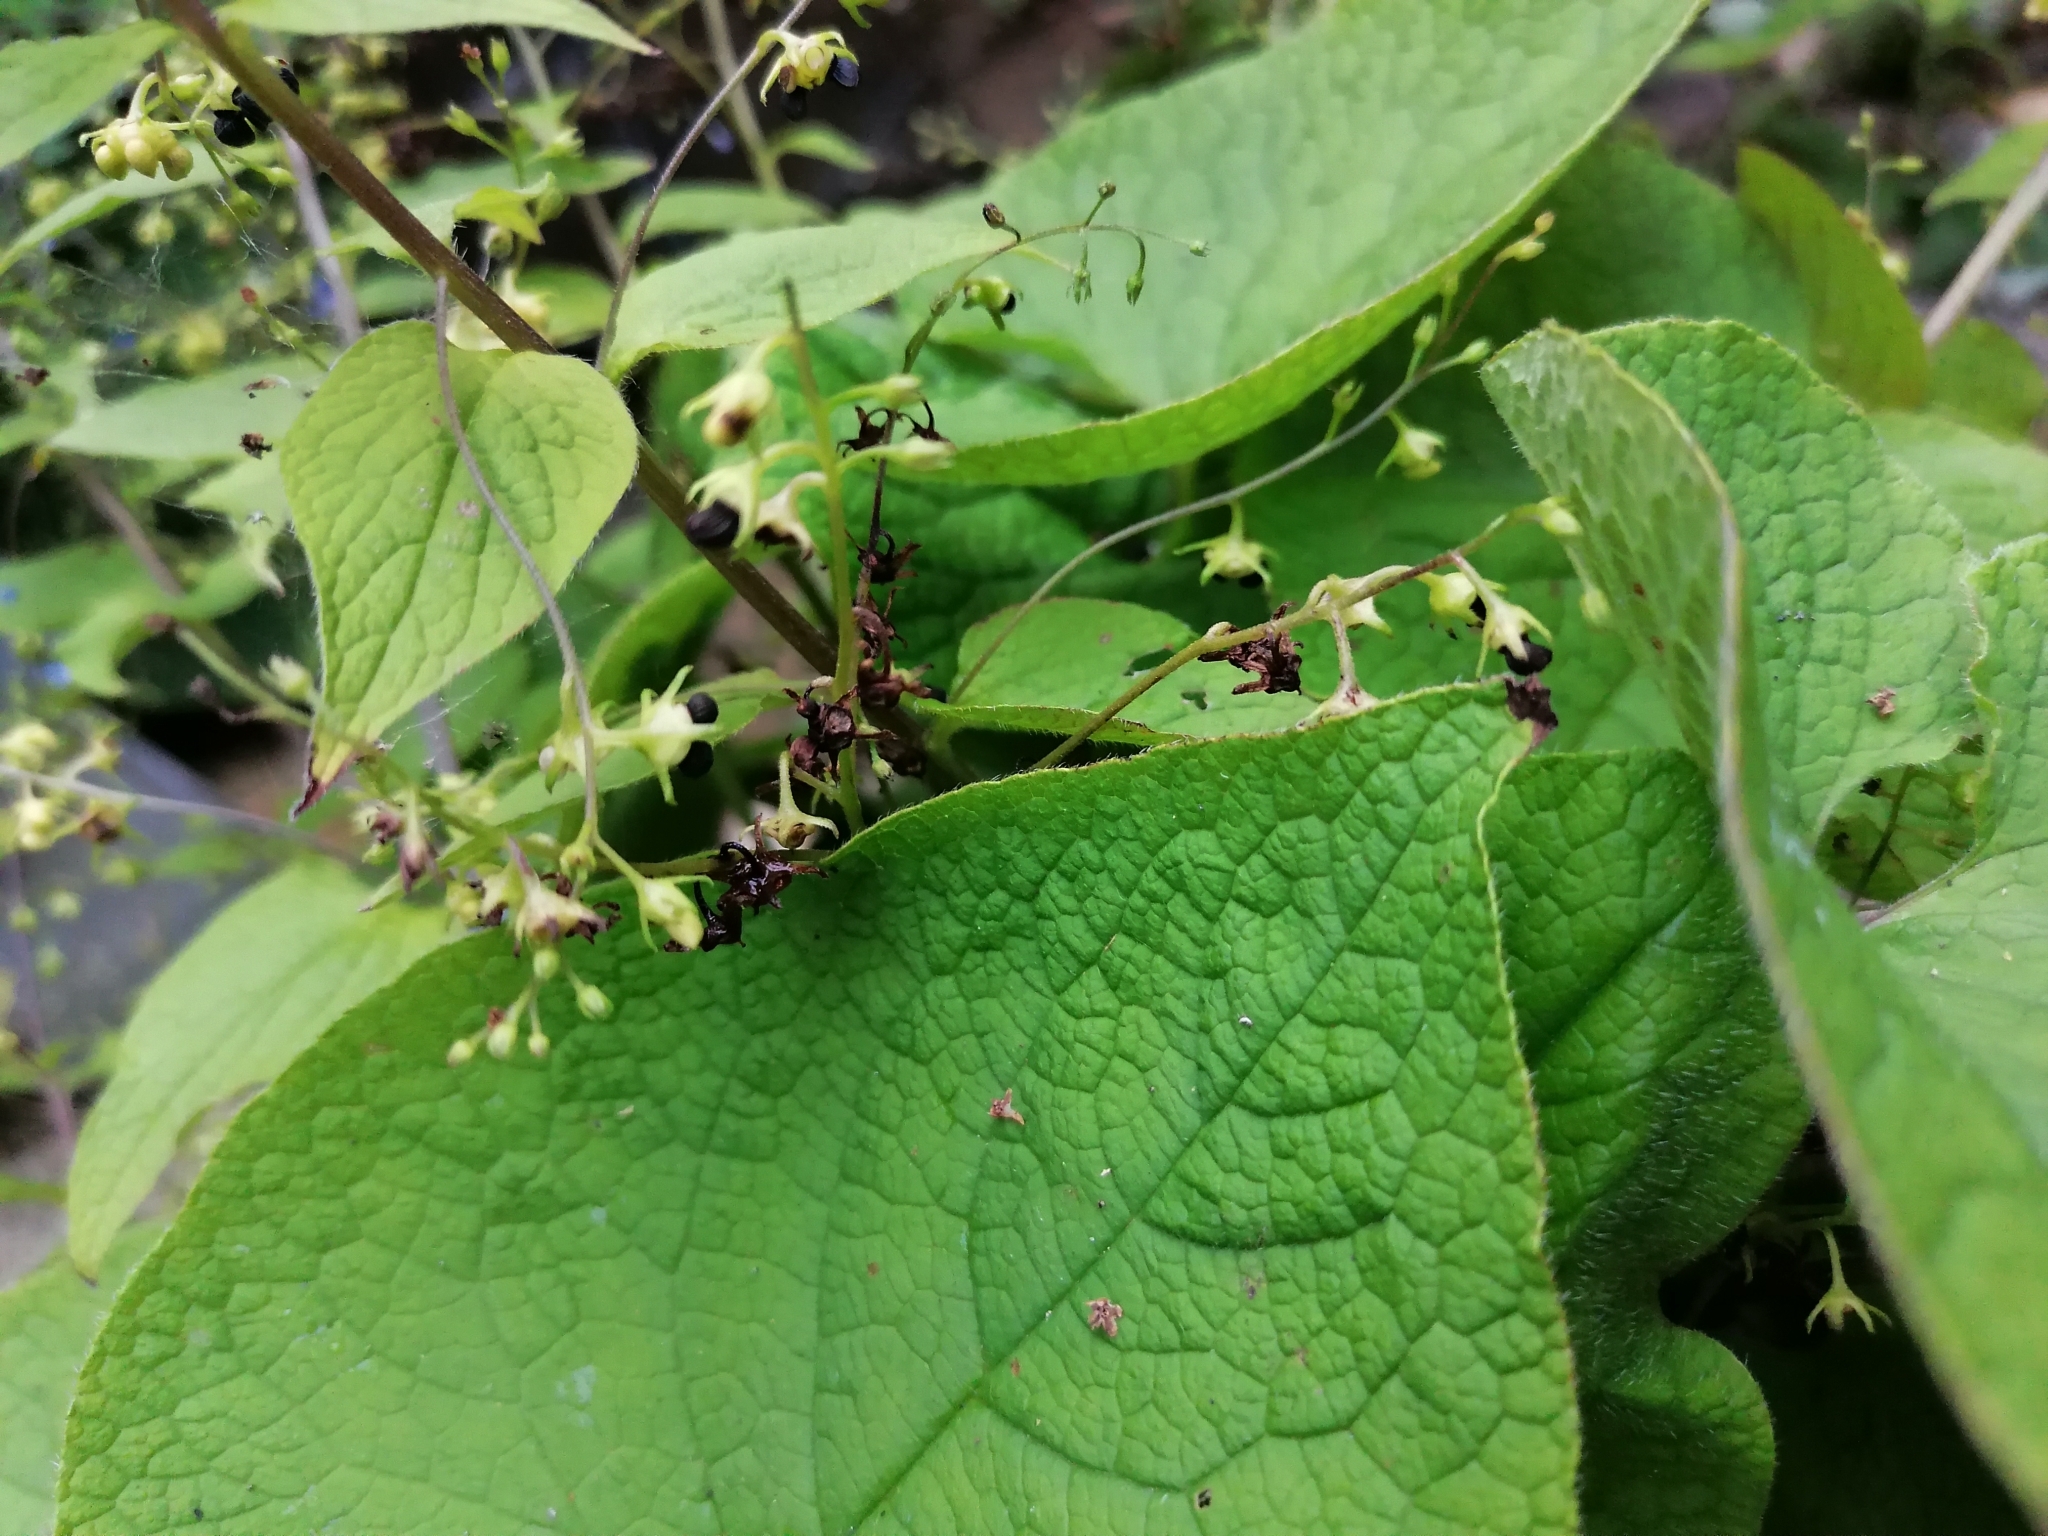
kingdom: Plantae
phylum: Tracheophyta
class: Magnoliopsida
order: Boraginales
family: Boraginaceae
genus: Brunnera
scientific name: Brunnera macrophylla
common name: Great forget-me-not
